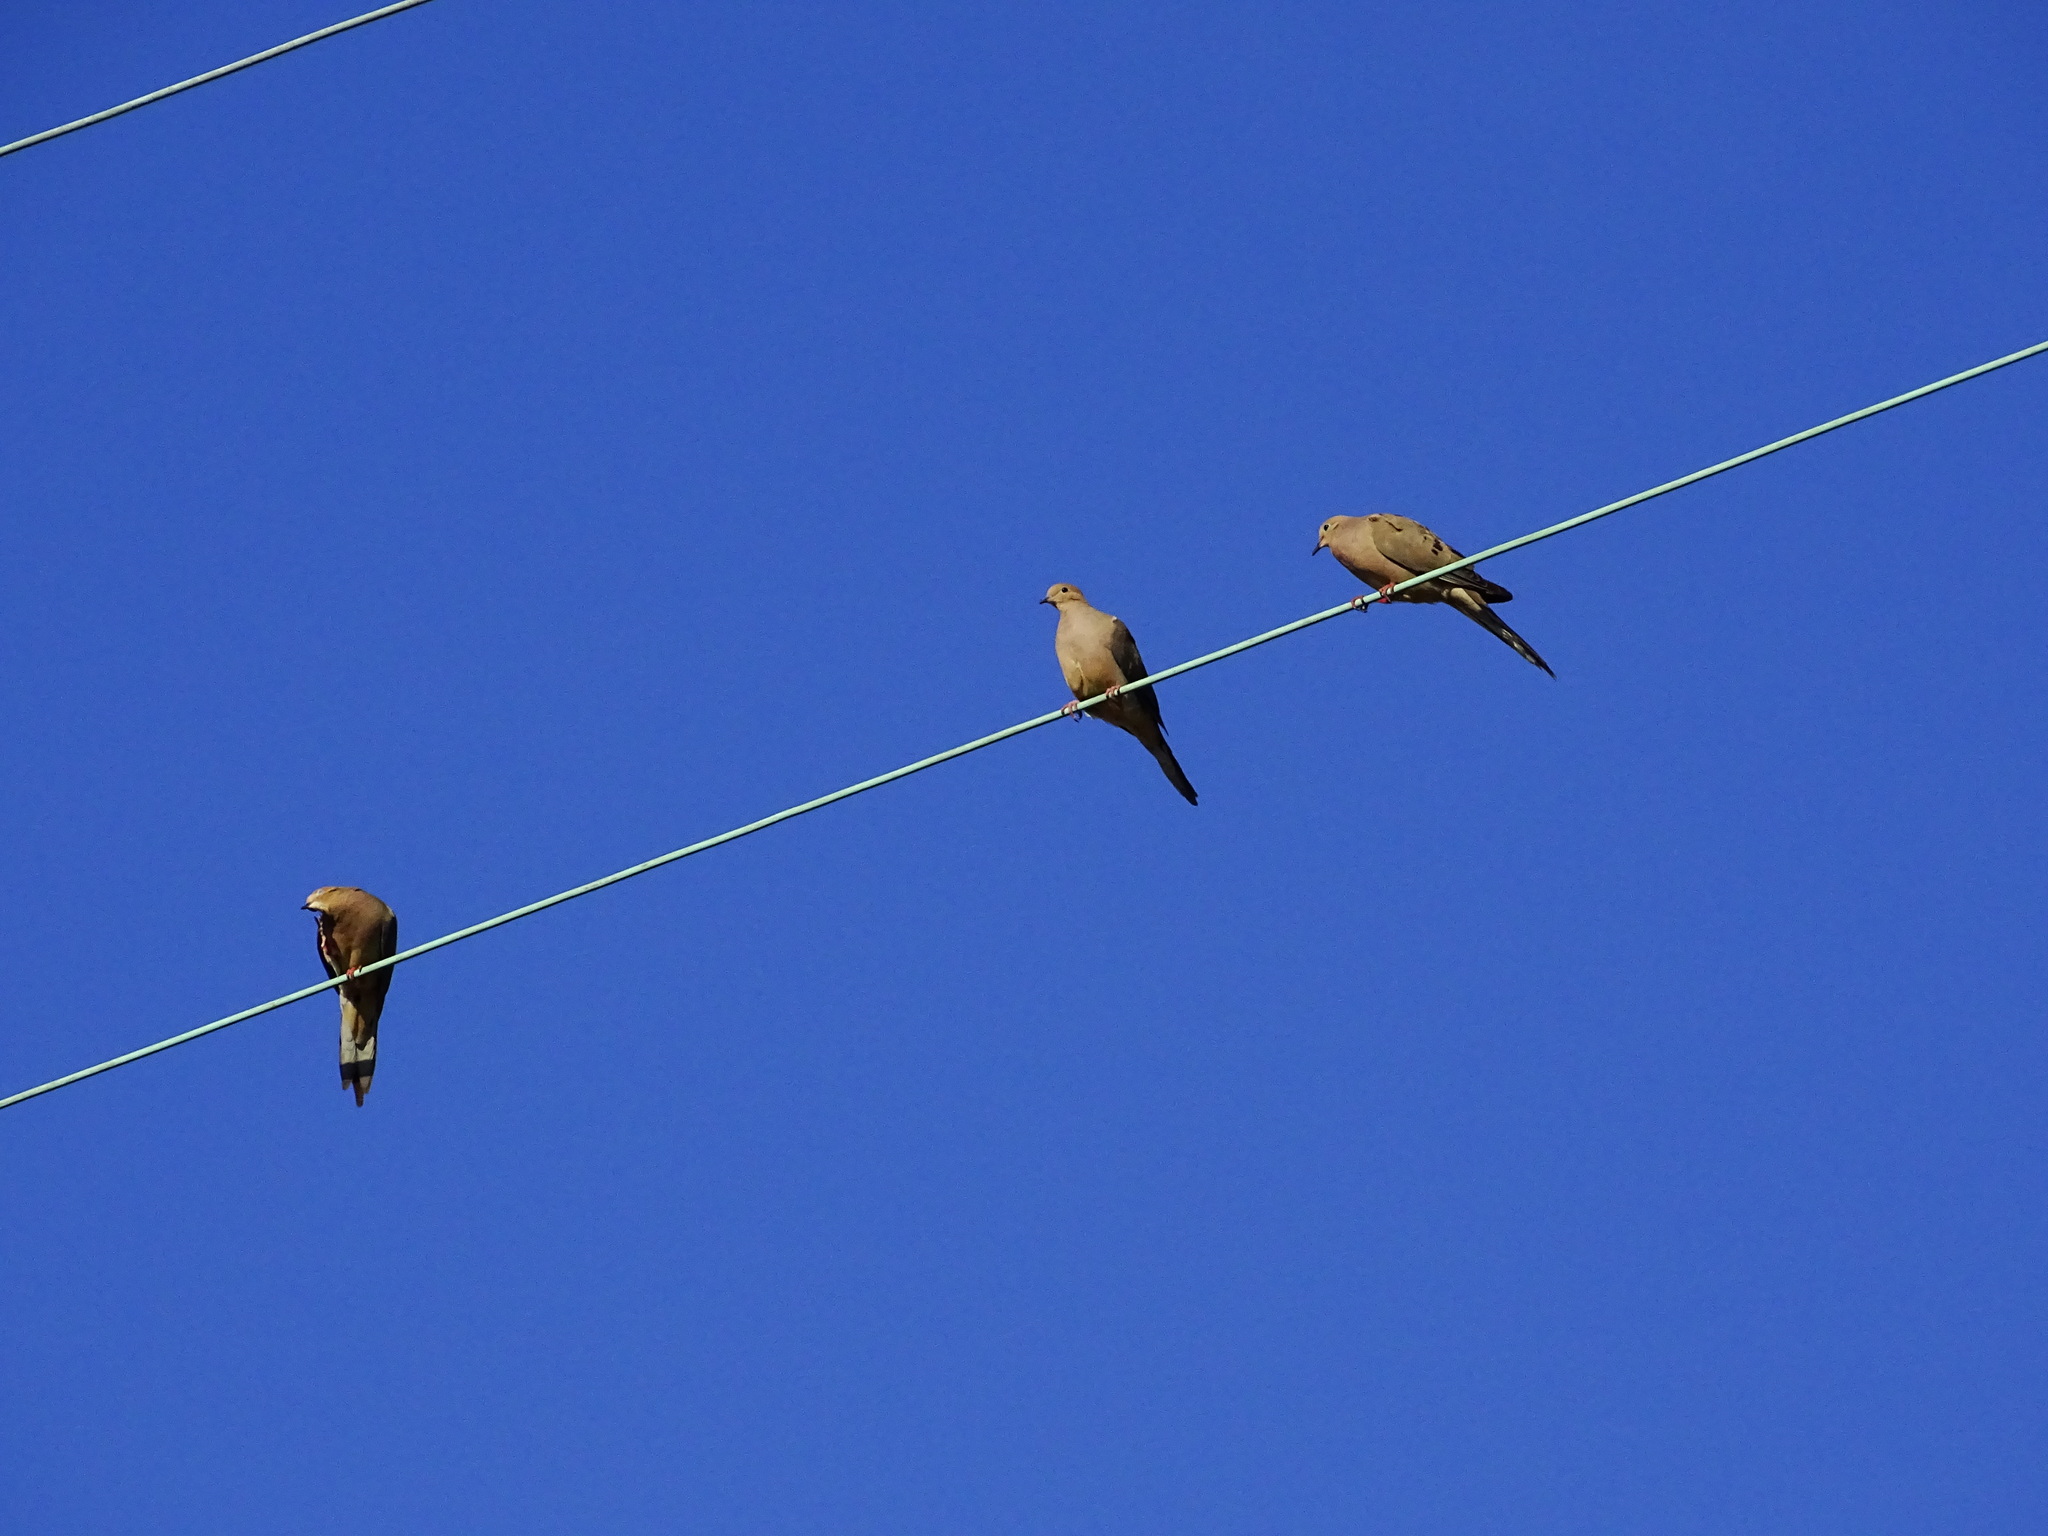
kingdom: Animalia
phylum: Chordata
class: Aves
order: Columbiformes
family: Columbidae
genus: Zenaida
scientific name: Zenaida macroura
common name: Mourning dove
